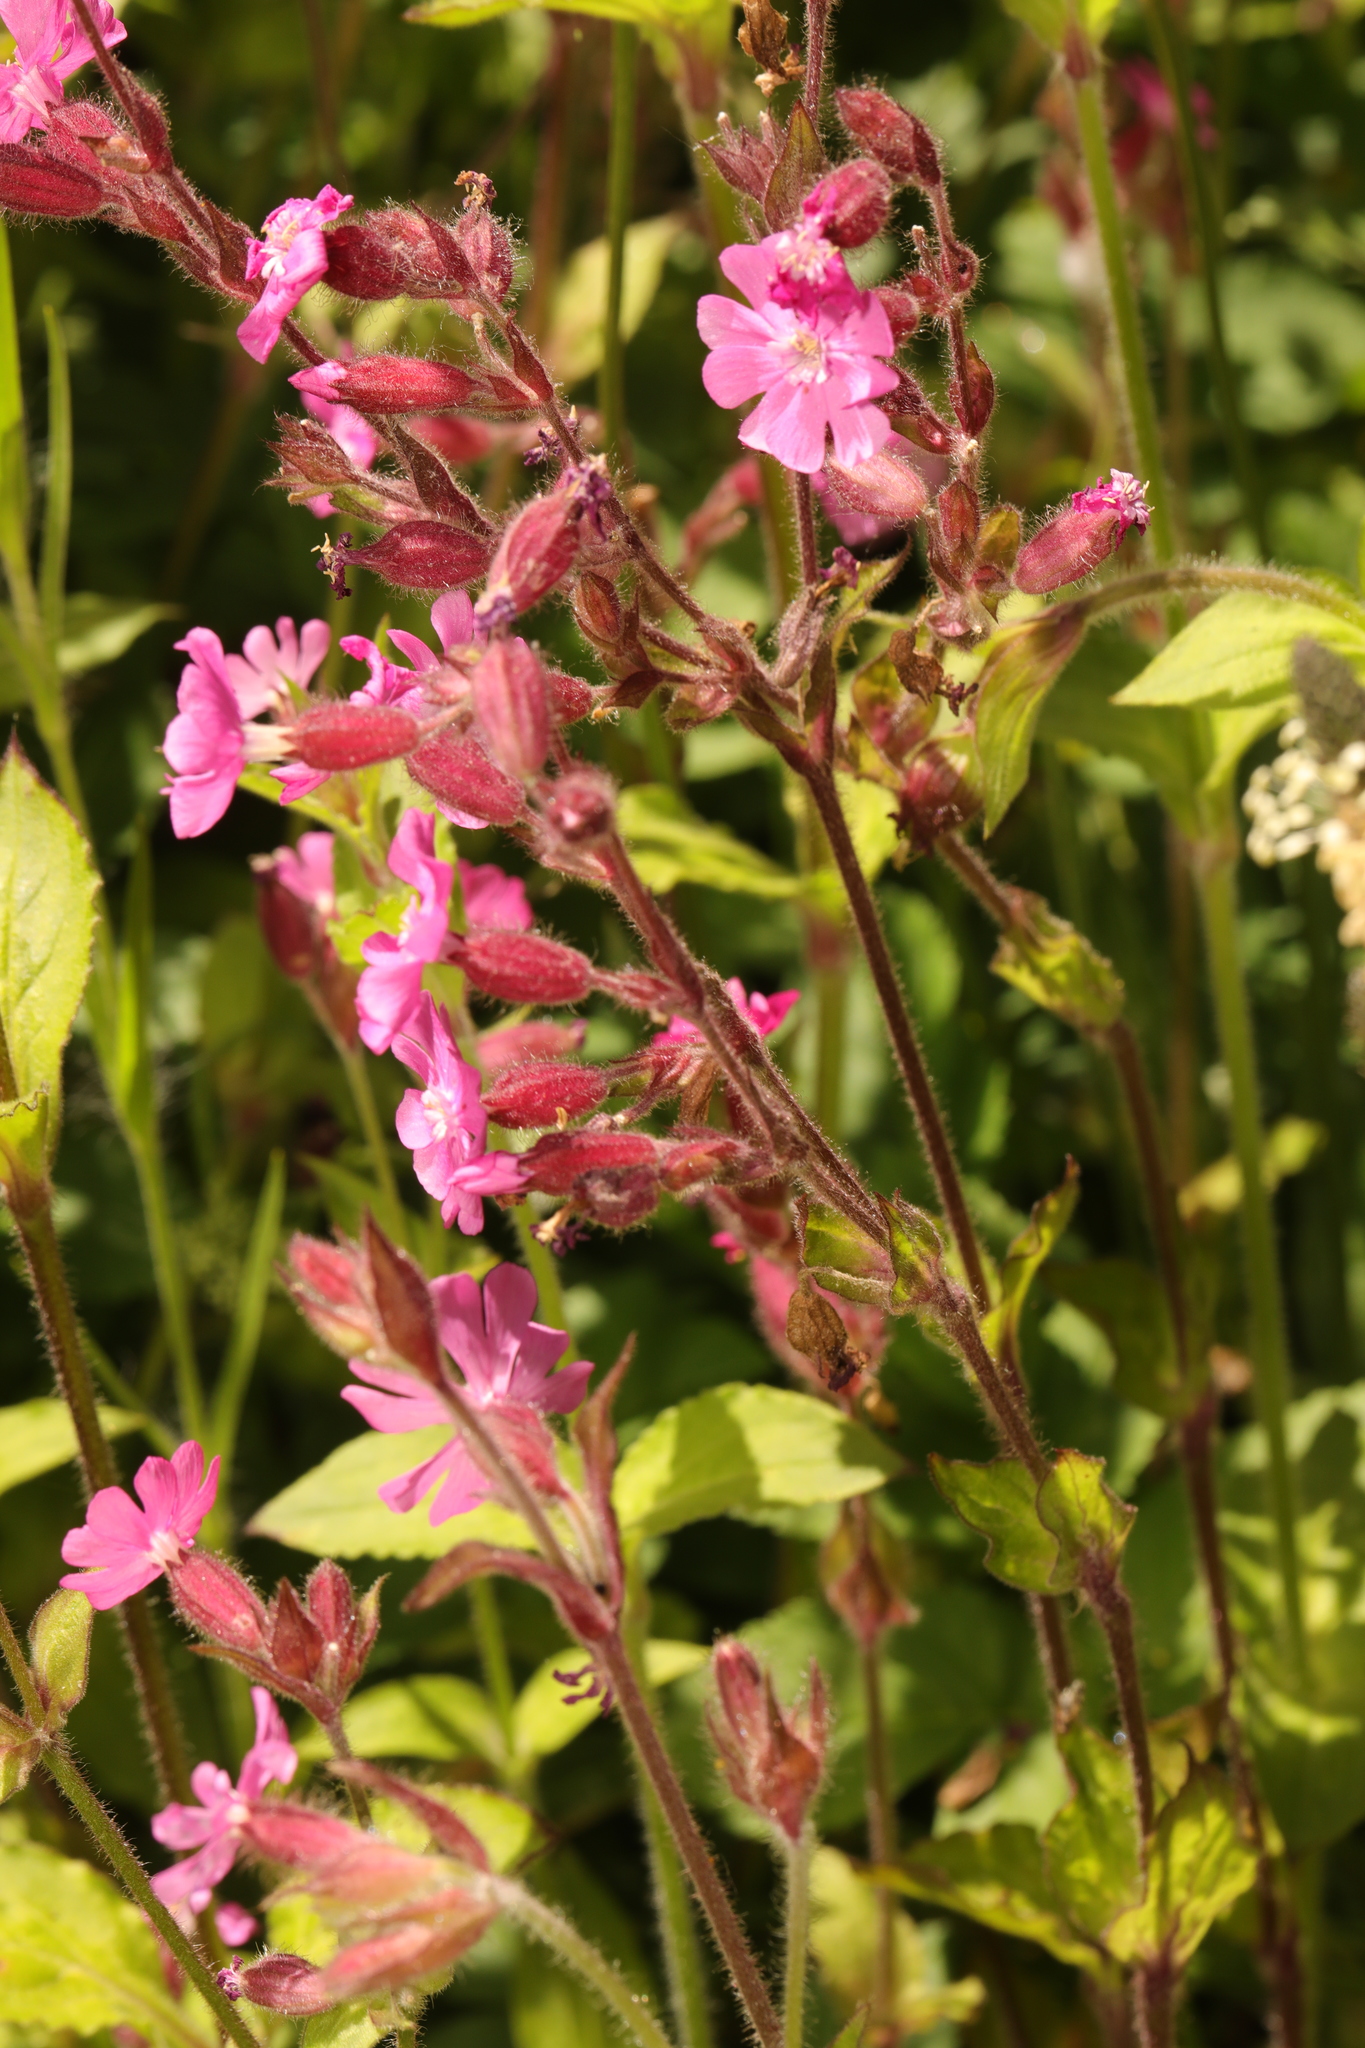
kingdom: Plantae
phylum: Tracheophyta
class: Magnoliopsida
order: Caryophyllales
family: Caryophyllaceae
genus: Silene
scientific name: Silene dioica
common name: Red campion
